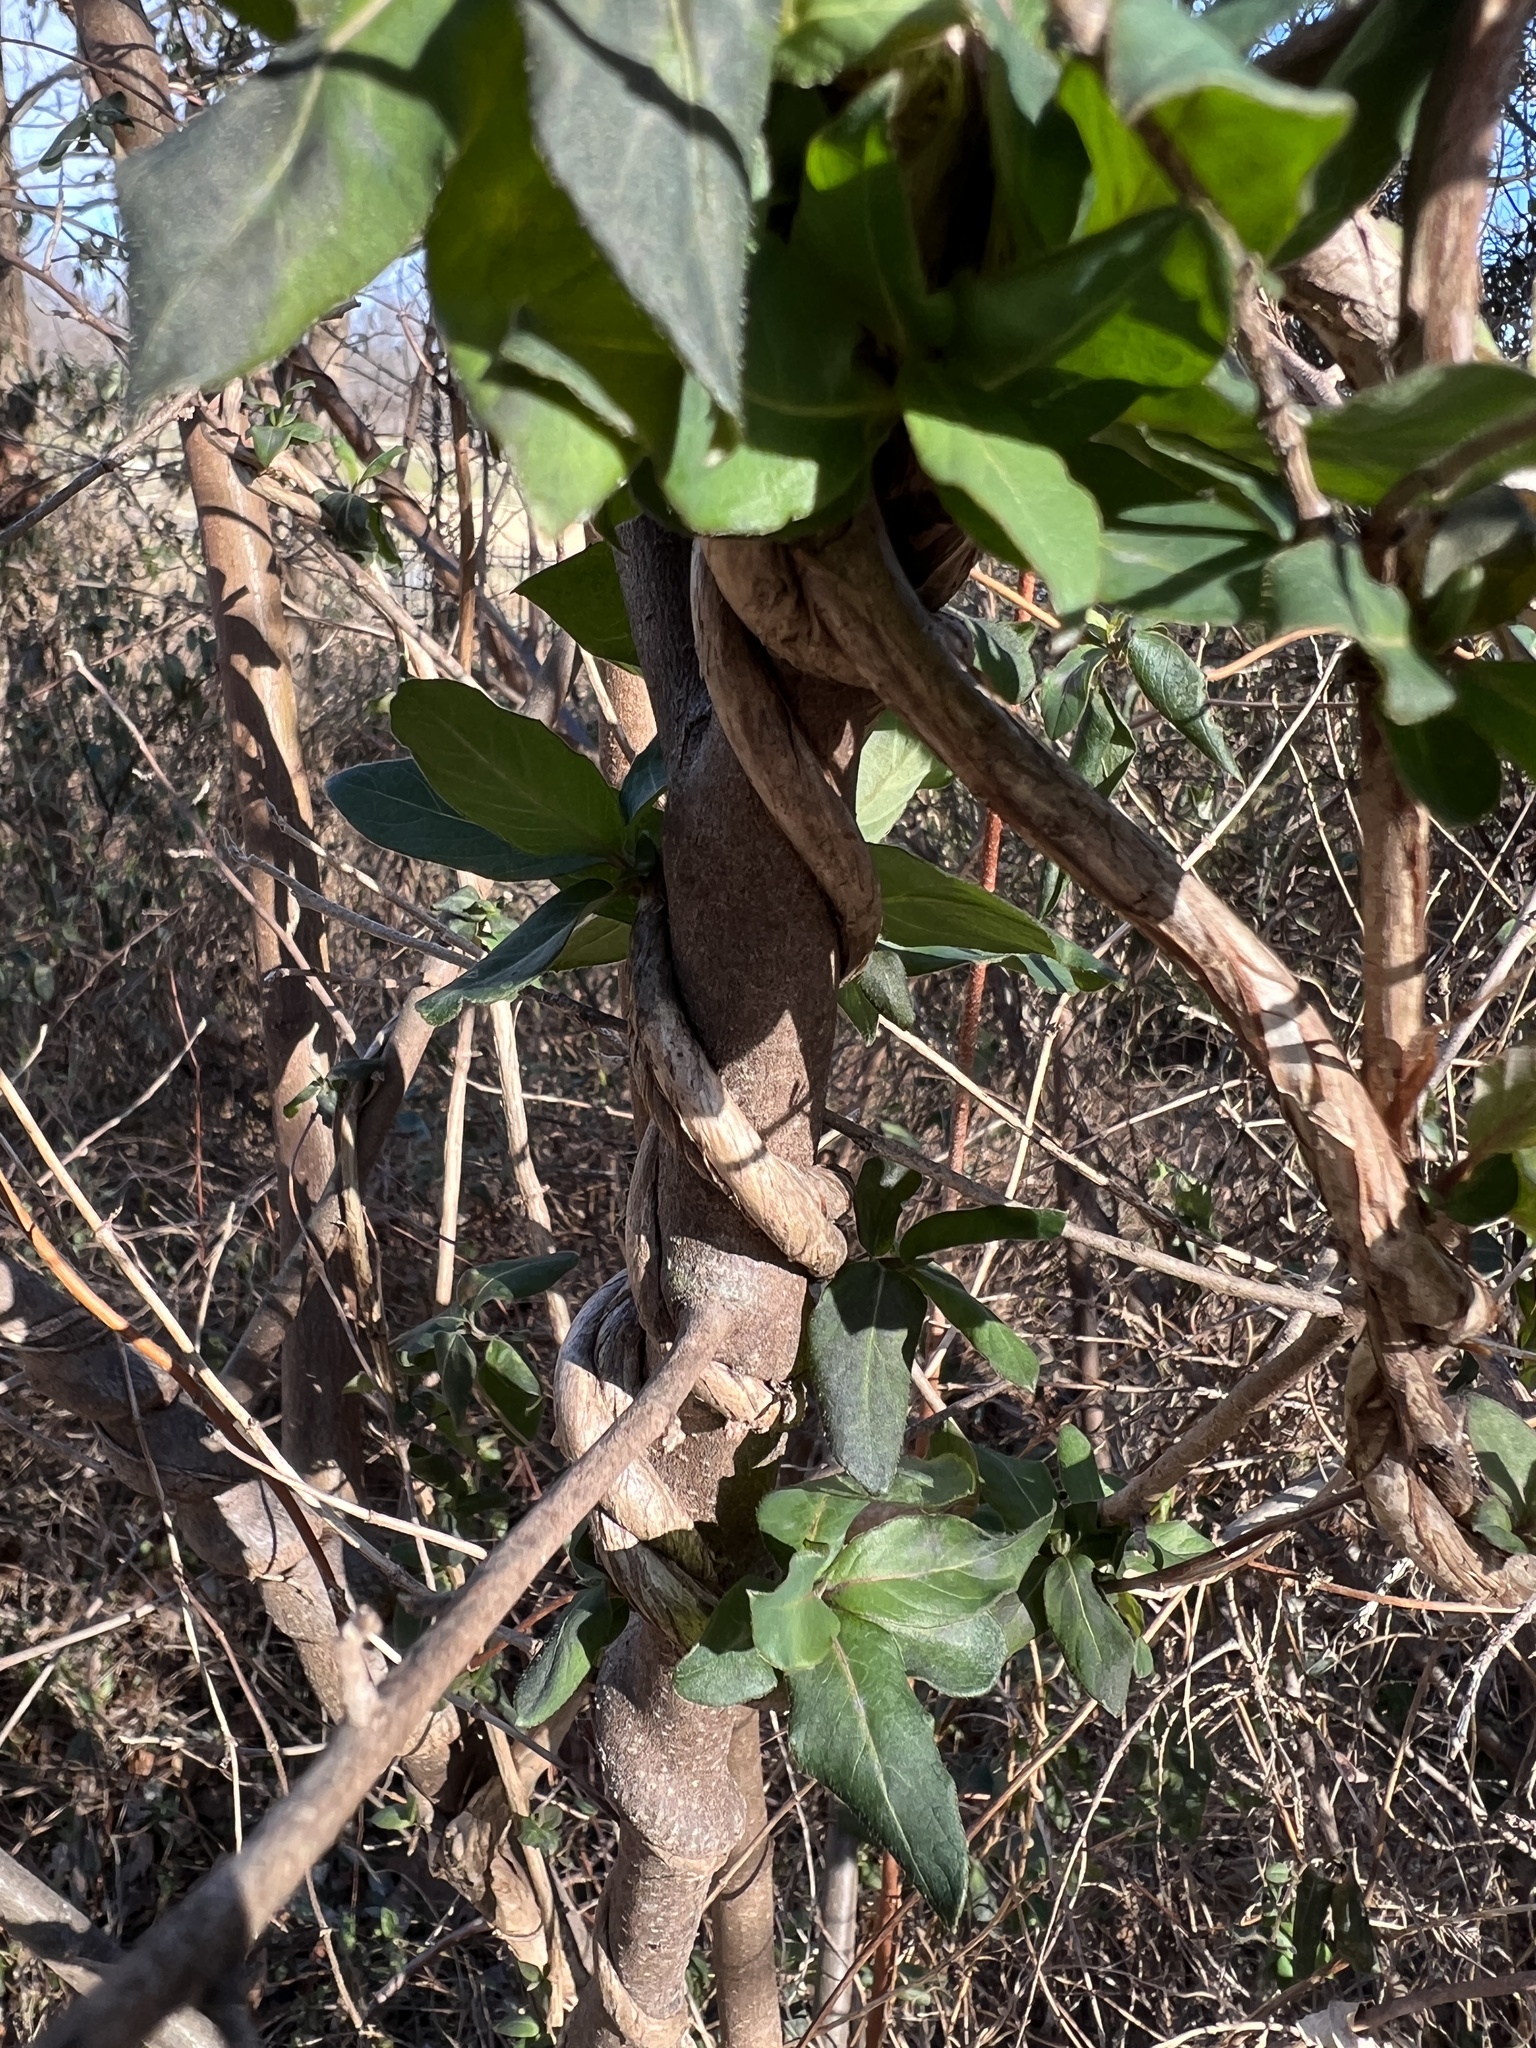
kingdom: Plantae
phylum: Tracheophyta
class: Magnoliopsida
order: Dipsacales
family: Caprifoliaceae
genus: Lonicera
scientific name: Lonicera japonica
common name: Japanese honeysuckle
